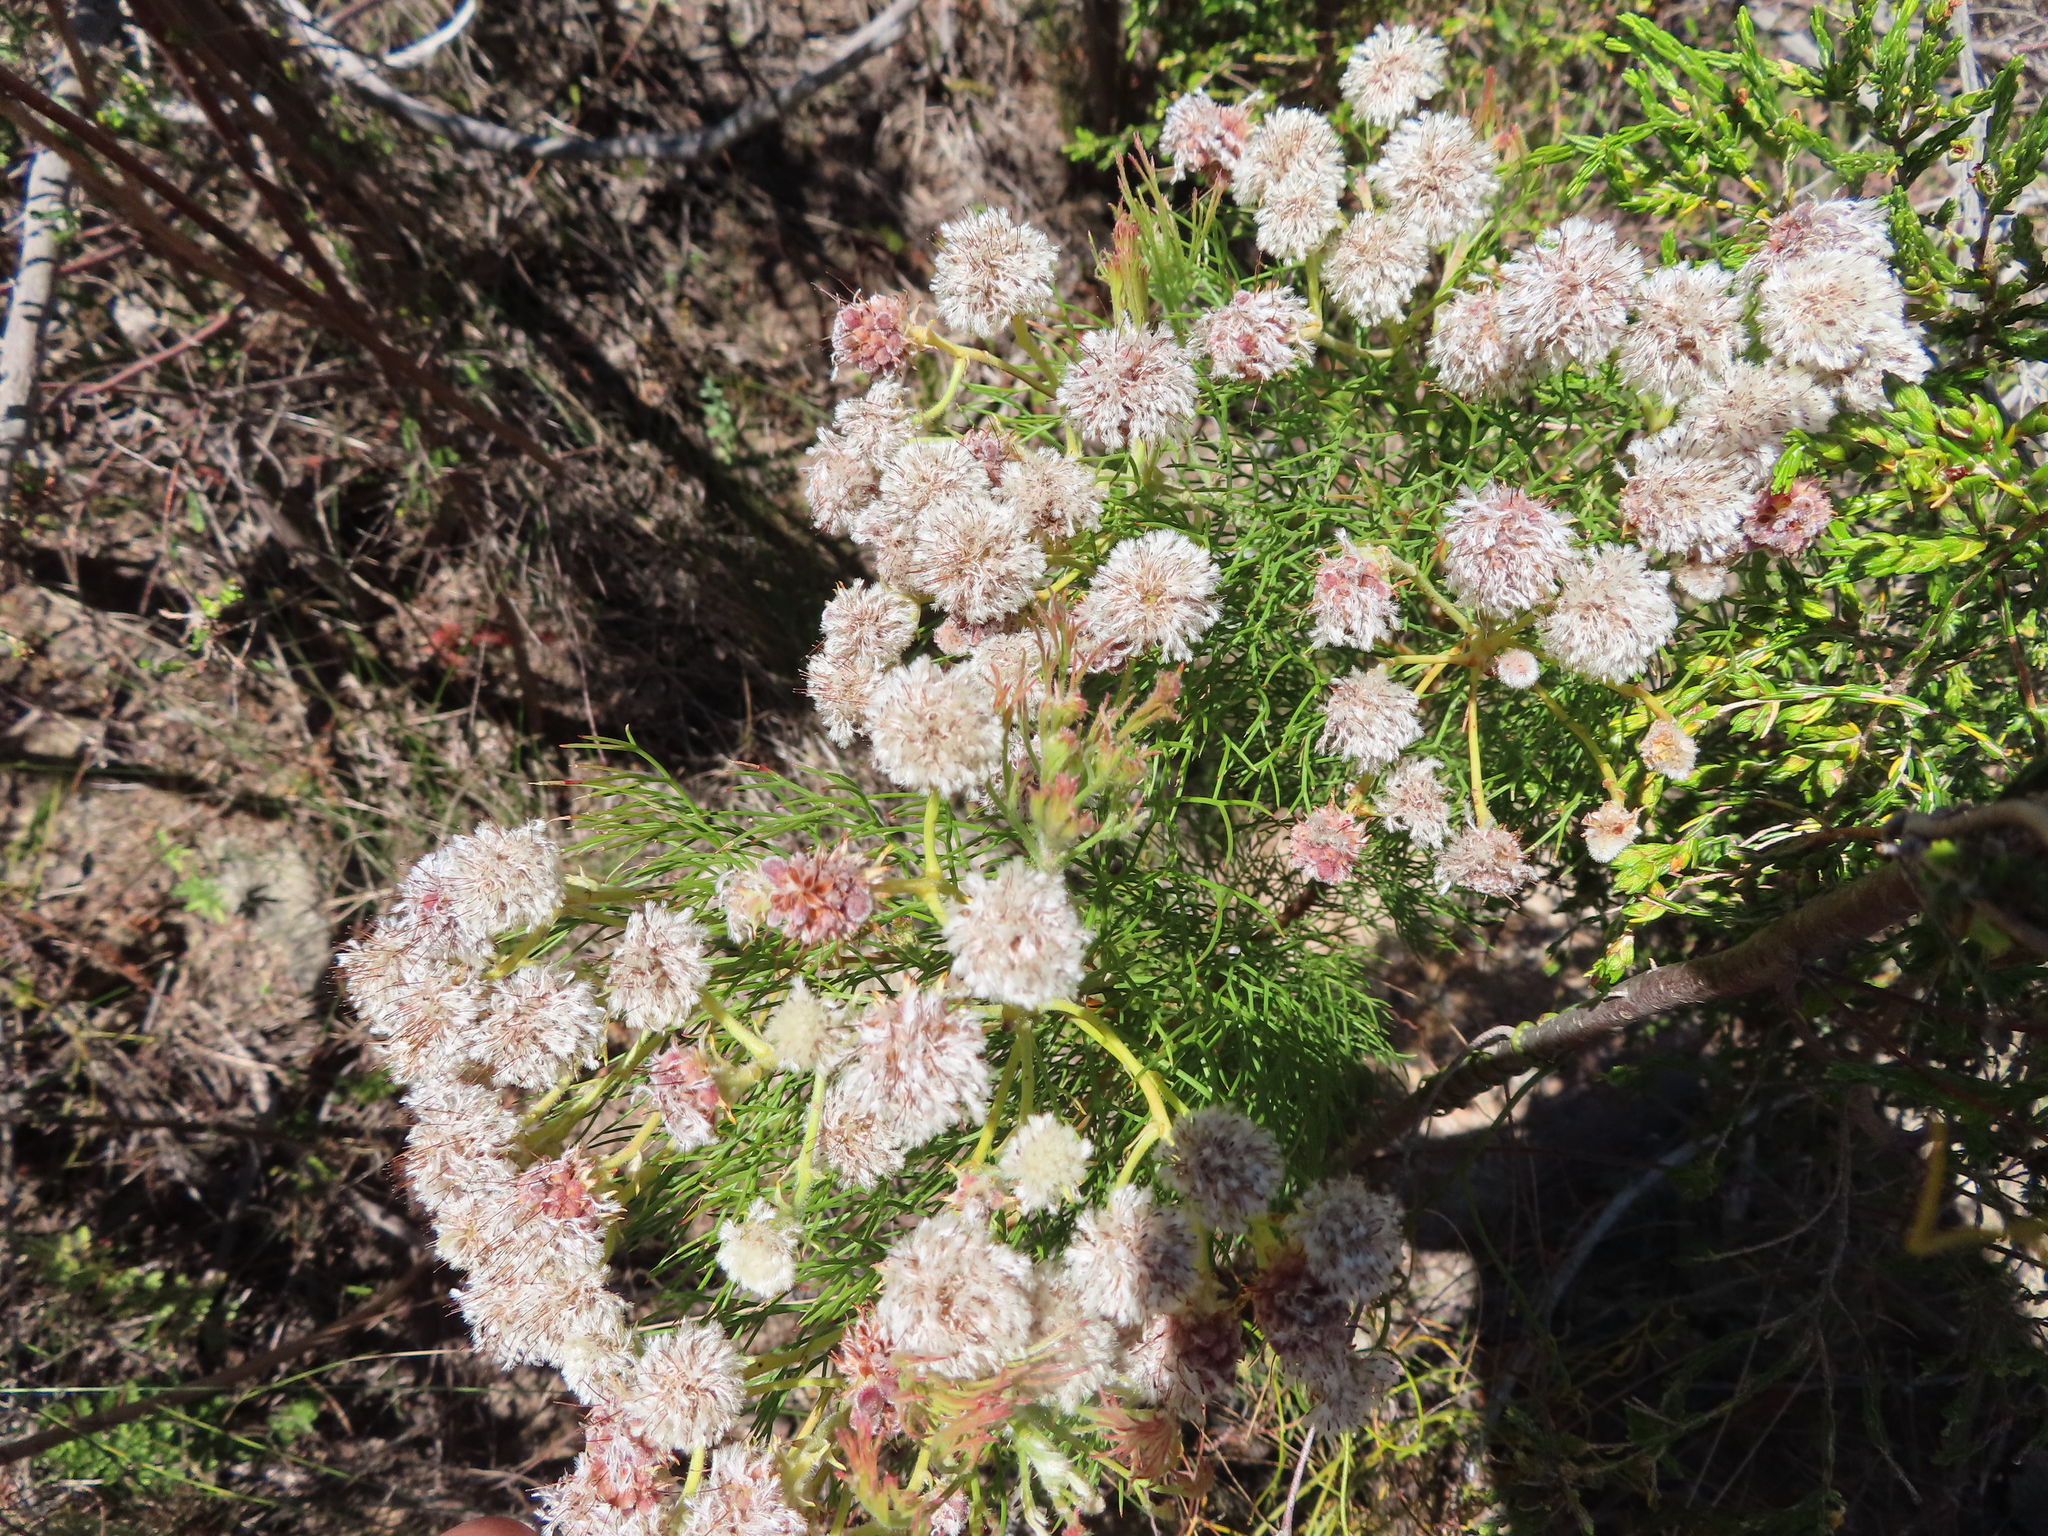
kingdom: Plantae
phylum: Tracheophyta
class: Magnoliopsida
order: Proteales
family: Proteaceae
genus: Serruria
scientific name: Serruria kraussii
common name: Snowball spiderhead
